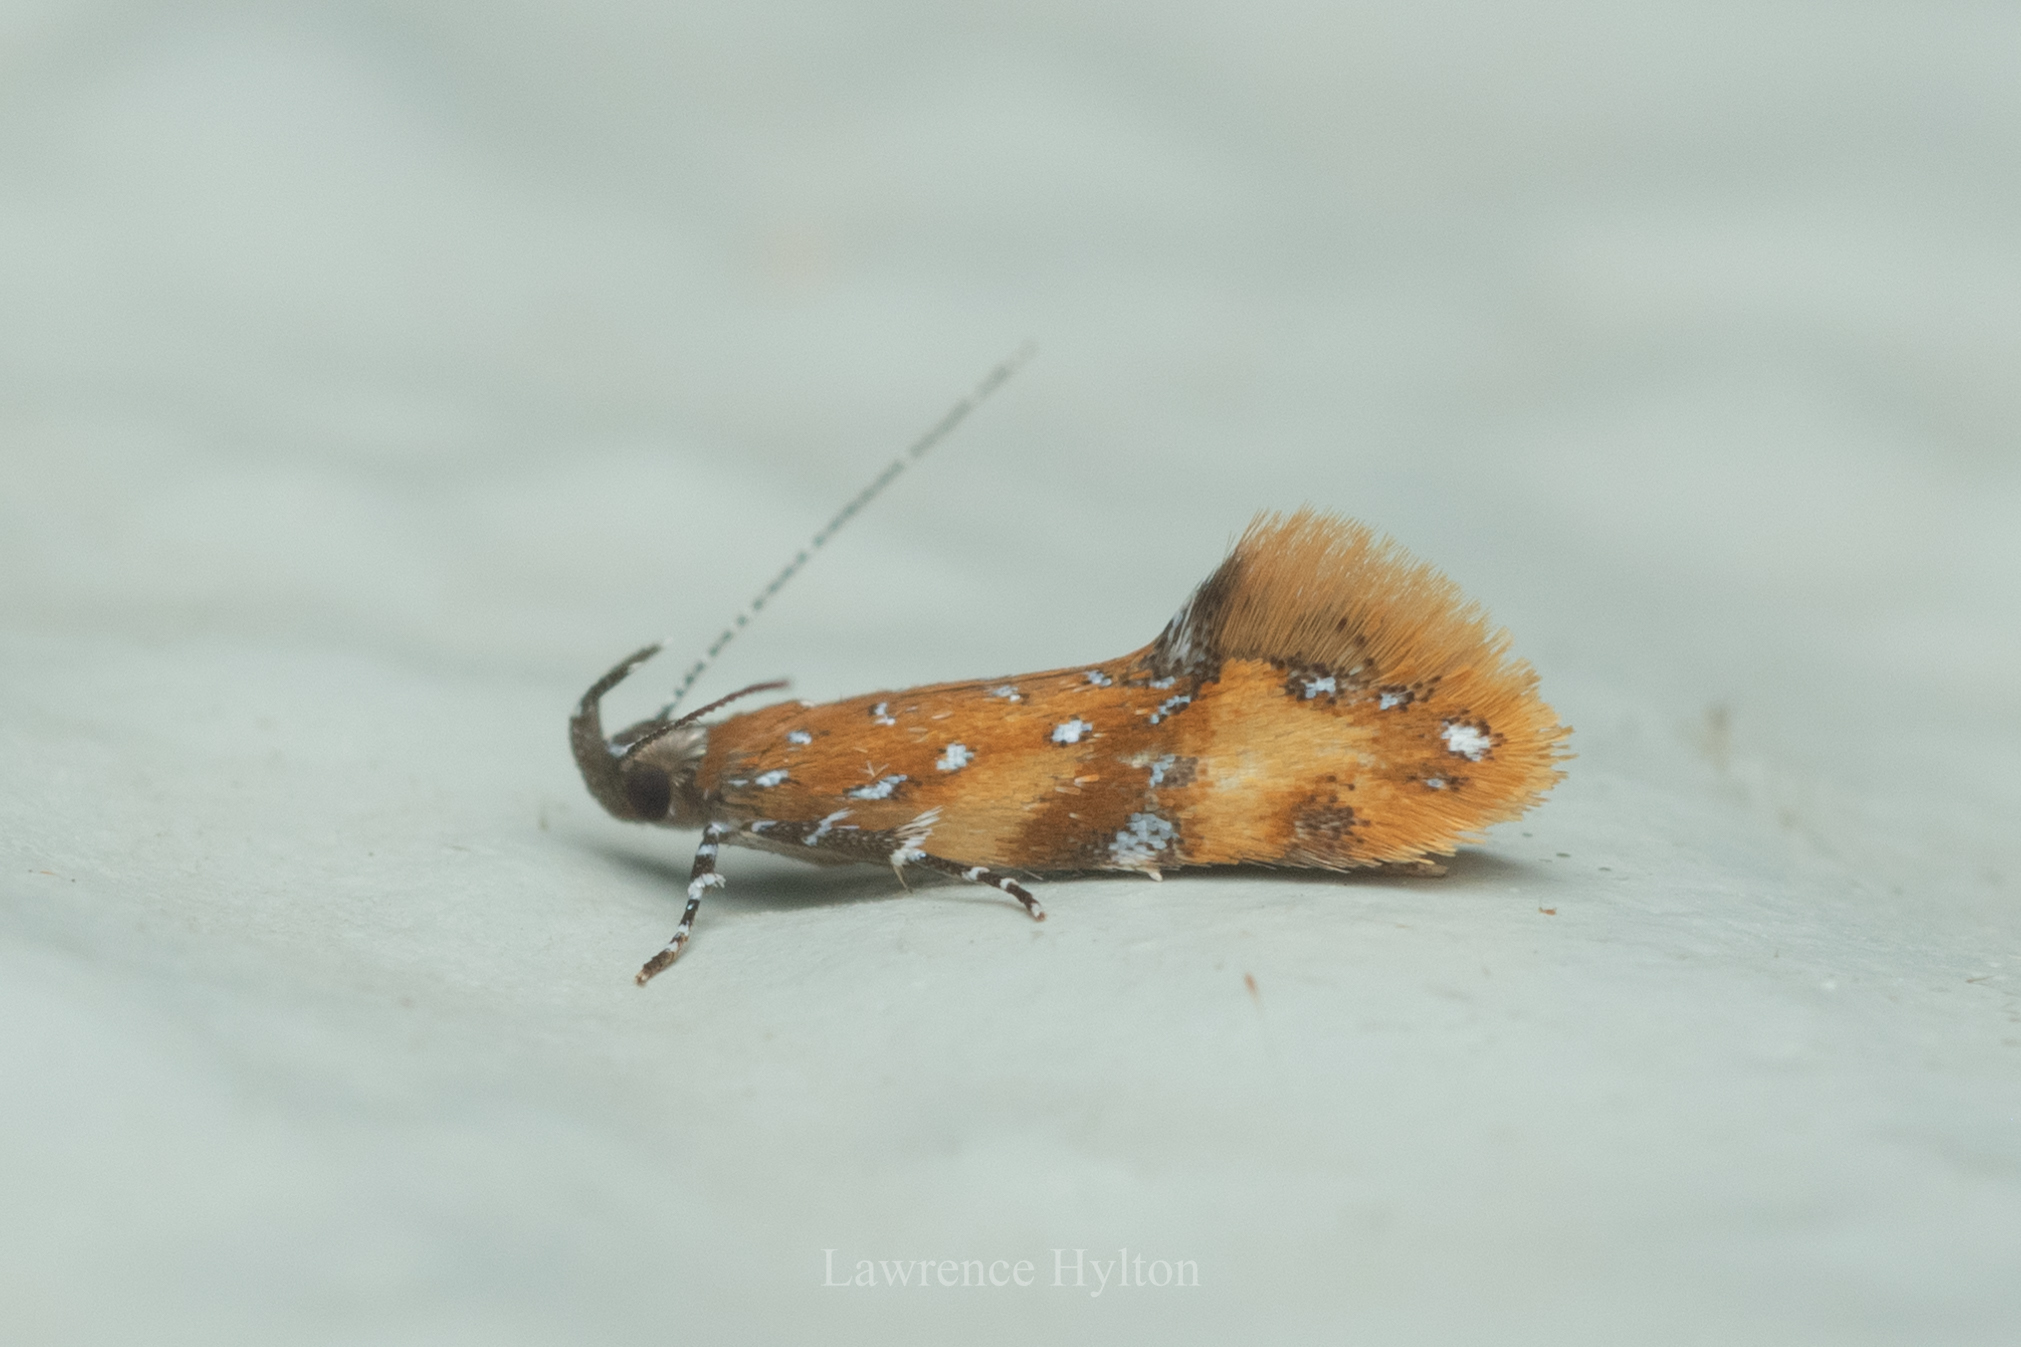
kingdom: Animalia
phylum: Arthropoda
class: Insecta
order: Lepidoptera
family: Oecophoridae
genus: Promalactis
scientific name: Promalactis densidentalis
